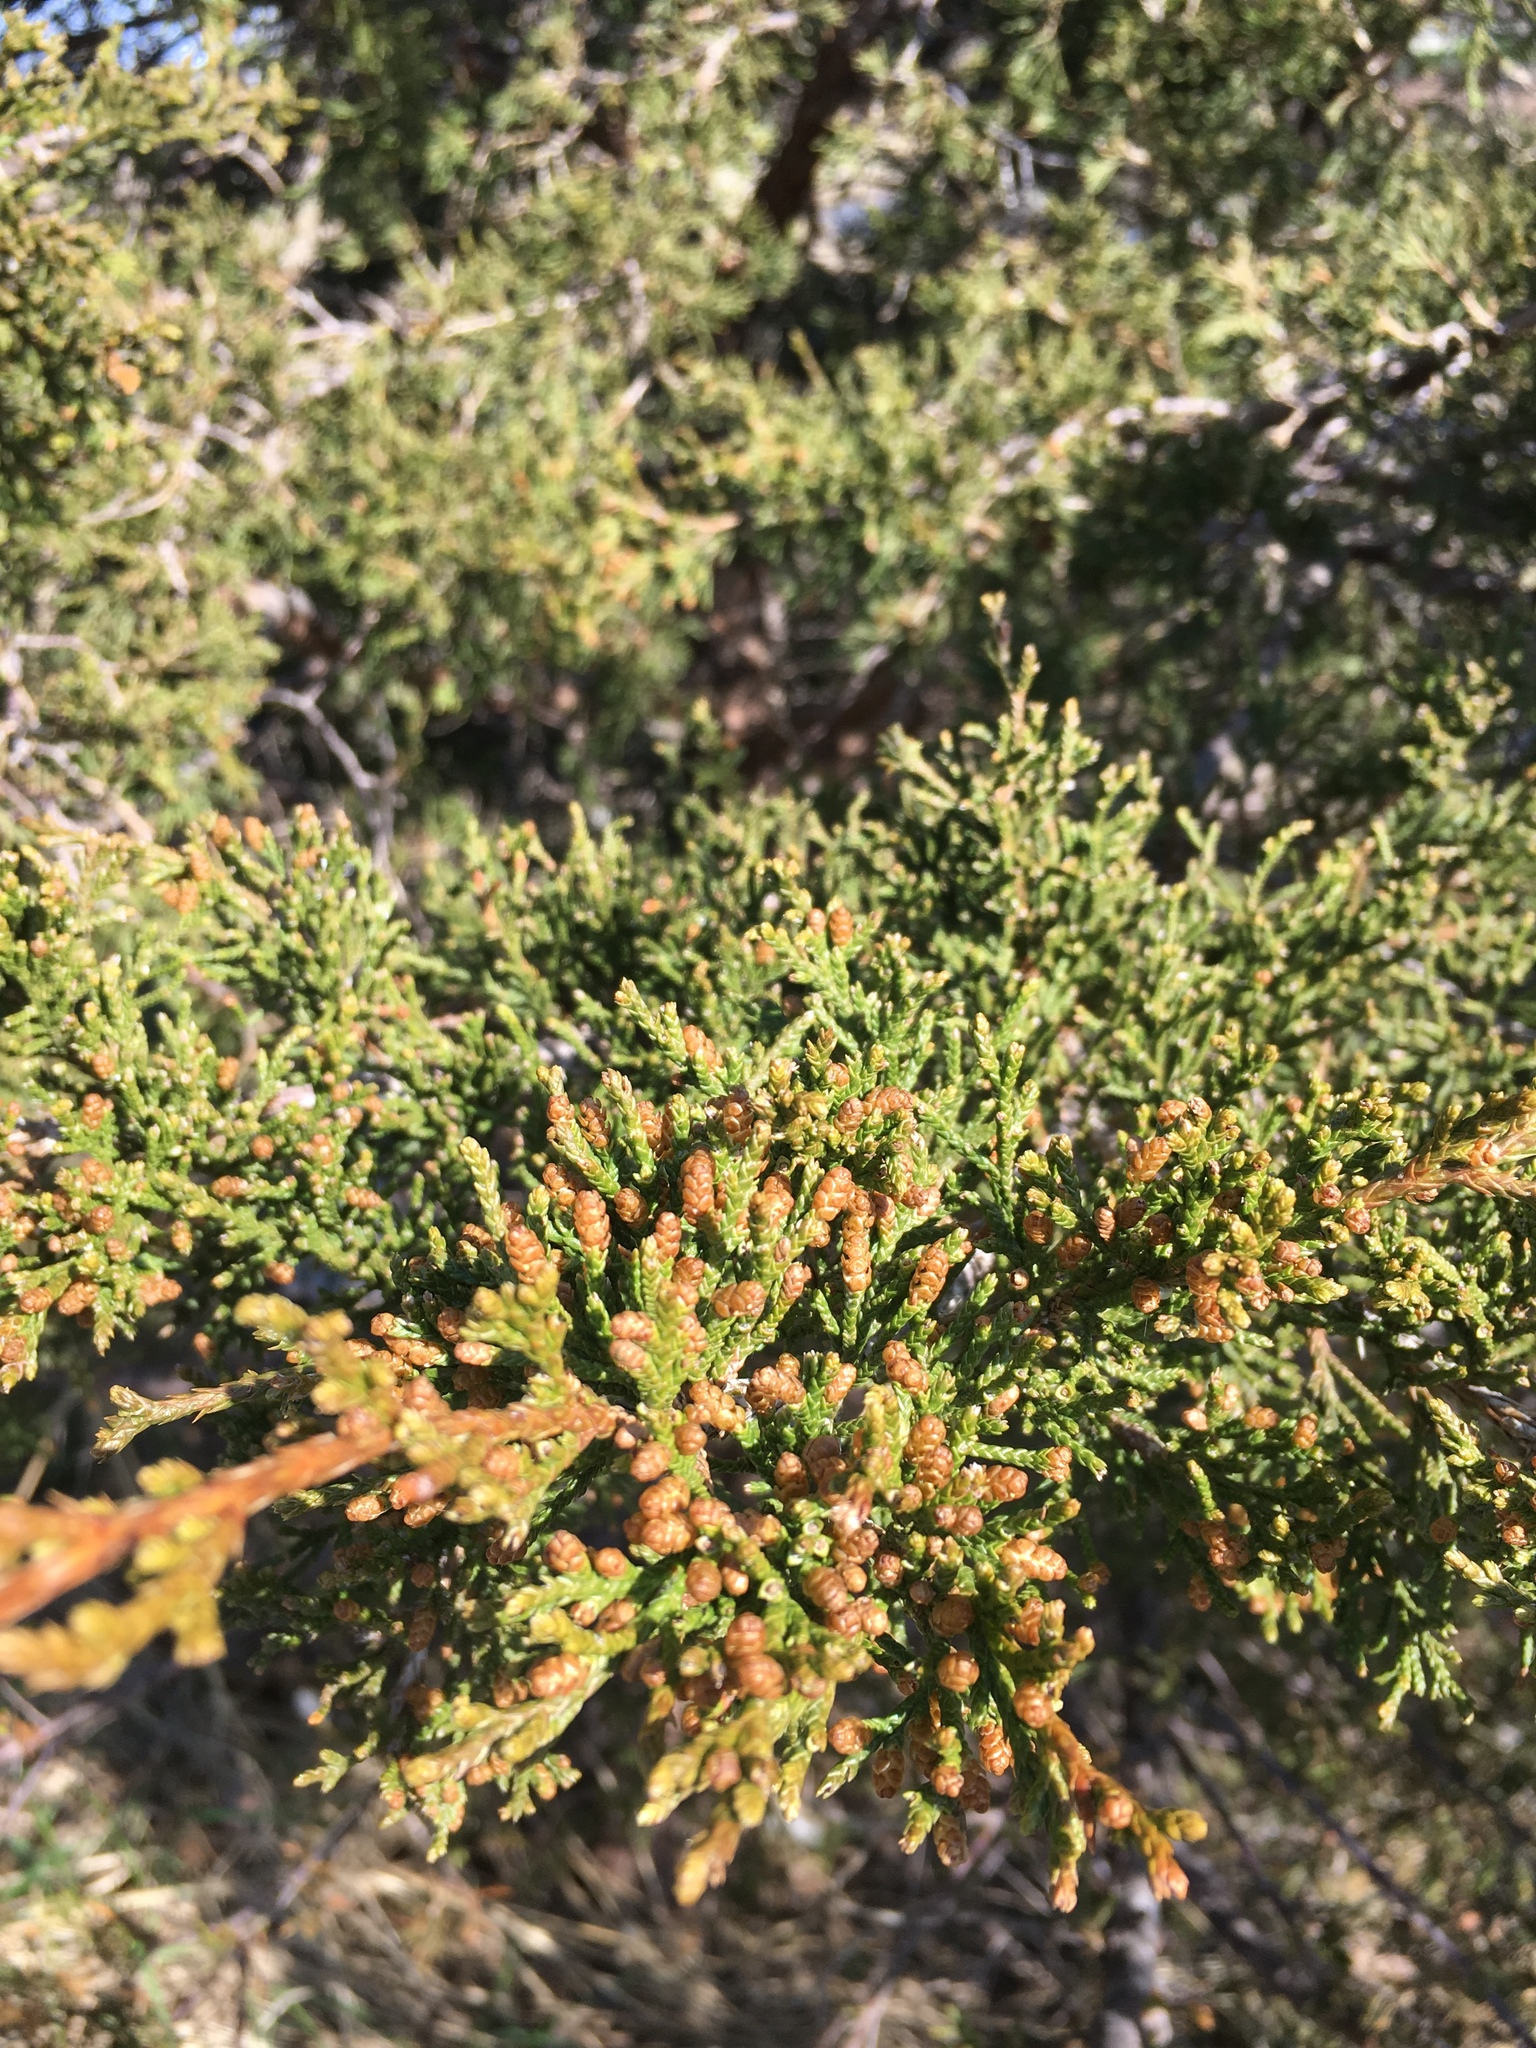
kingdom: Plantae
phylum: Tracheophyta
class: Pinopsida
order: Pinales
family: Cupressaceae
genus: Juniperus
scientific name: Juniperus virginiana
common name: Red juniper
